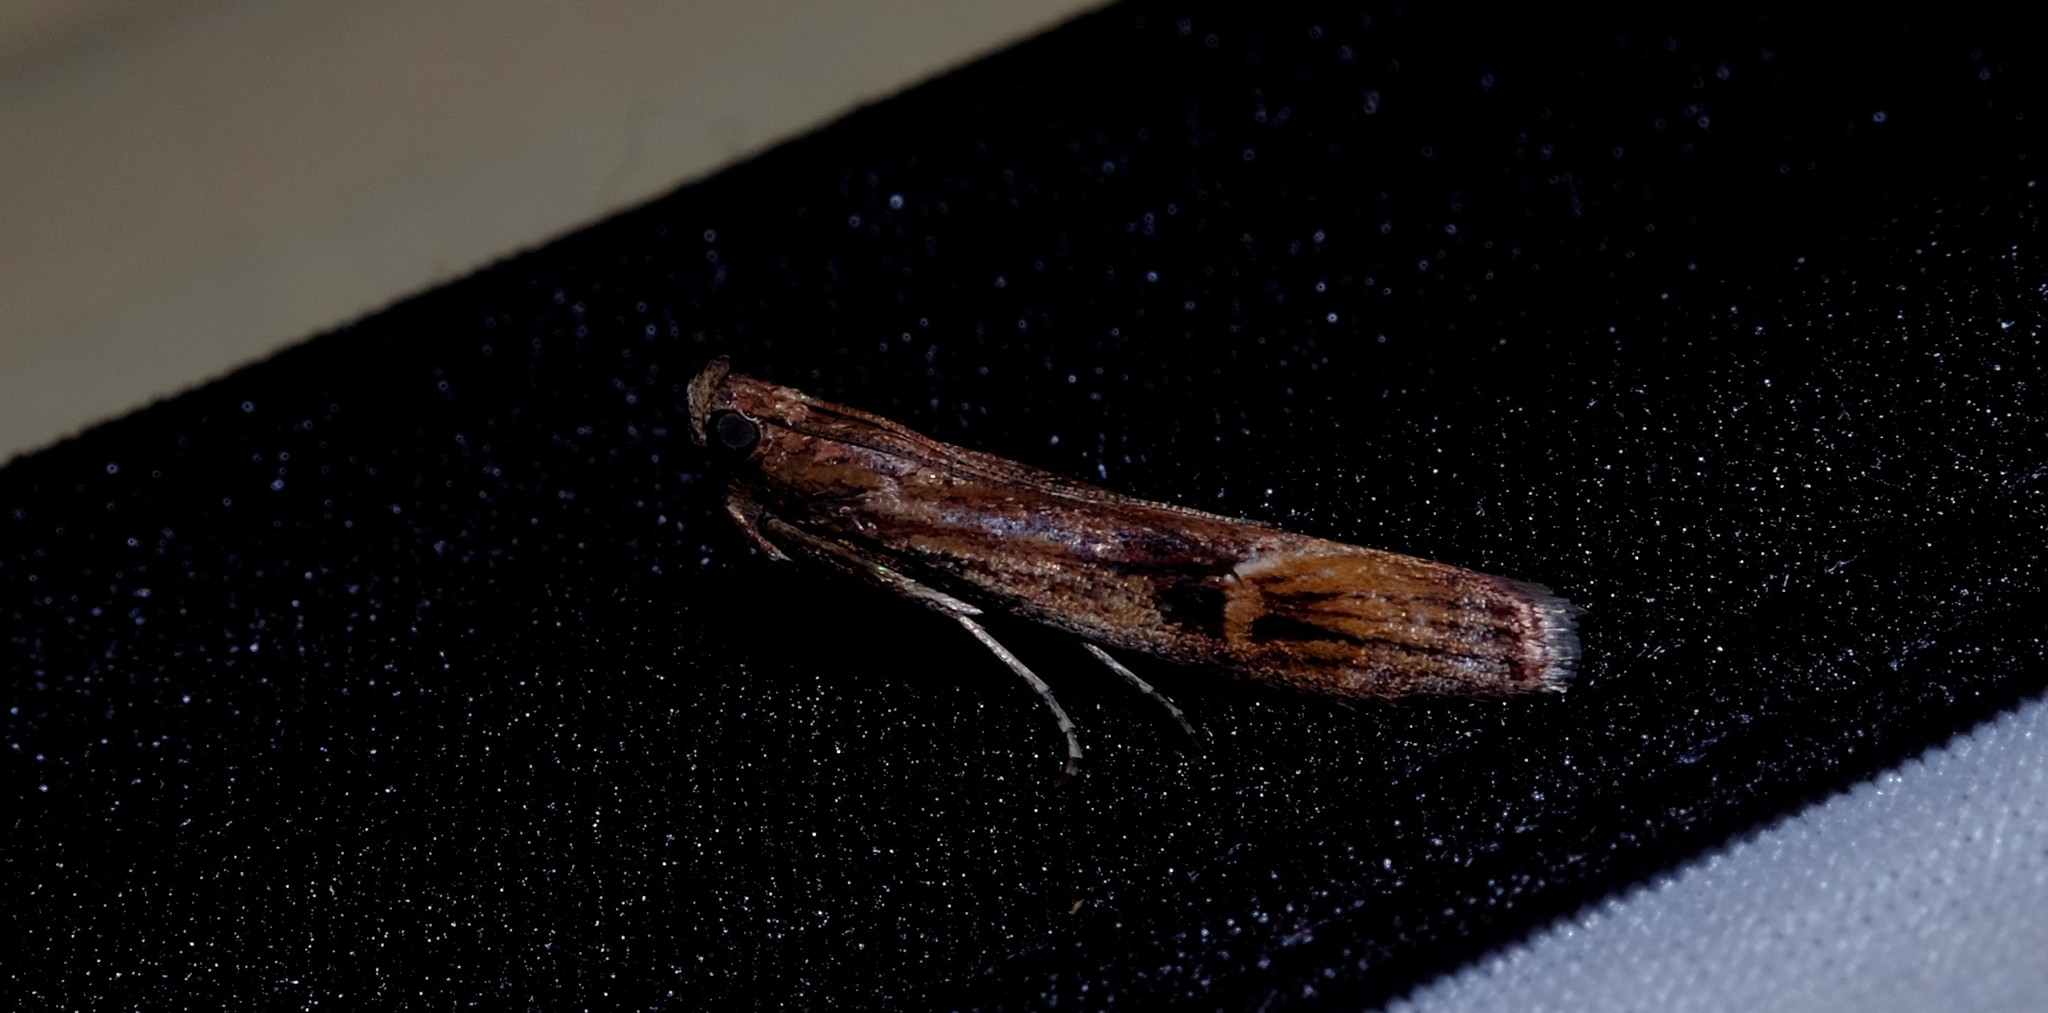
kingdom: Animalia
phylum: Arthropoda
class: Insecta
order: Lepidoptera
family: Pyralidae
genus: Balanomis
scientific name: Balanomis encyclia
